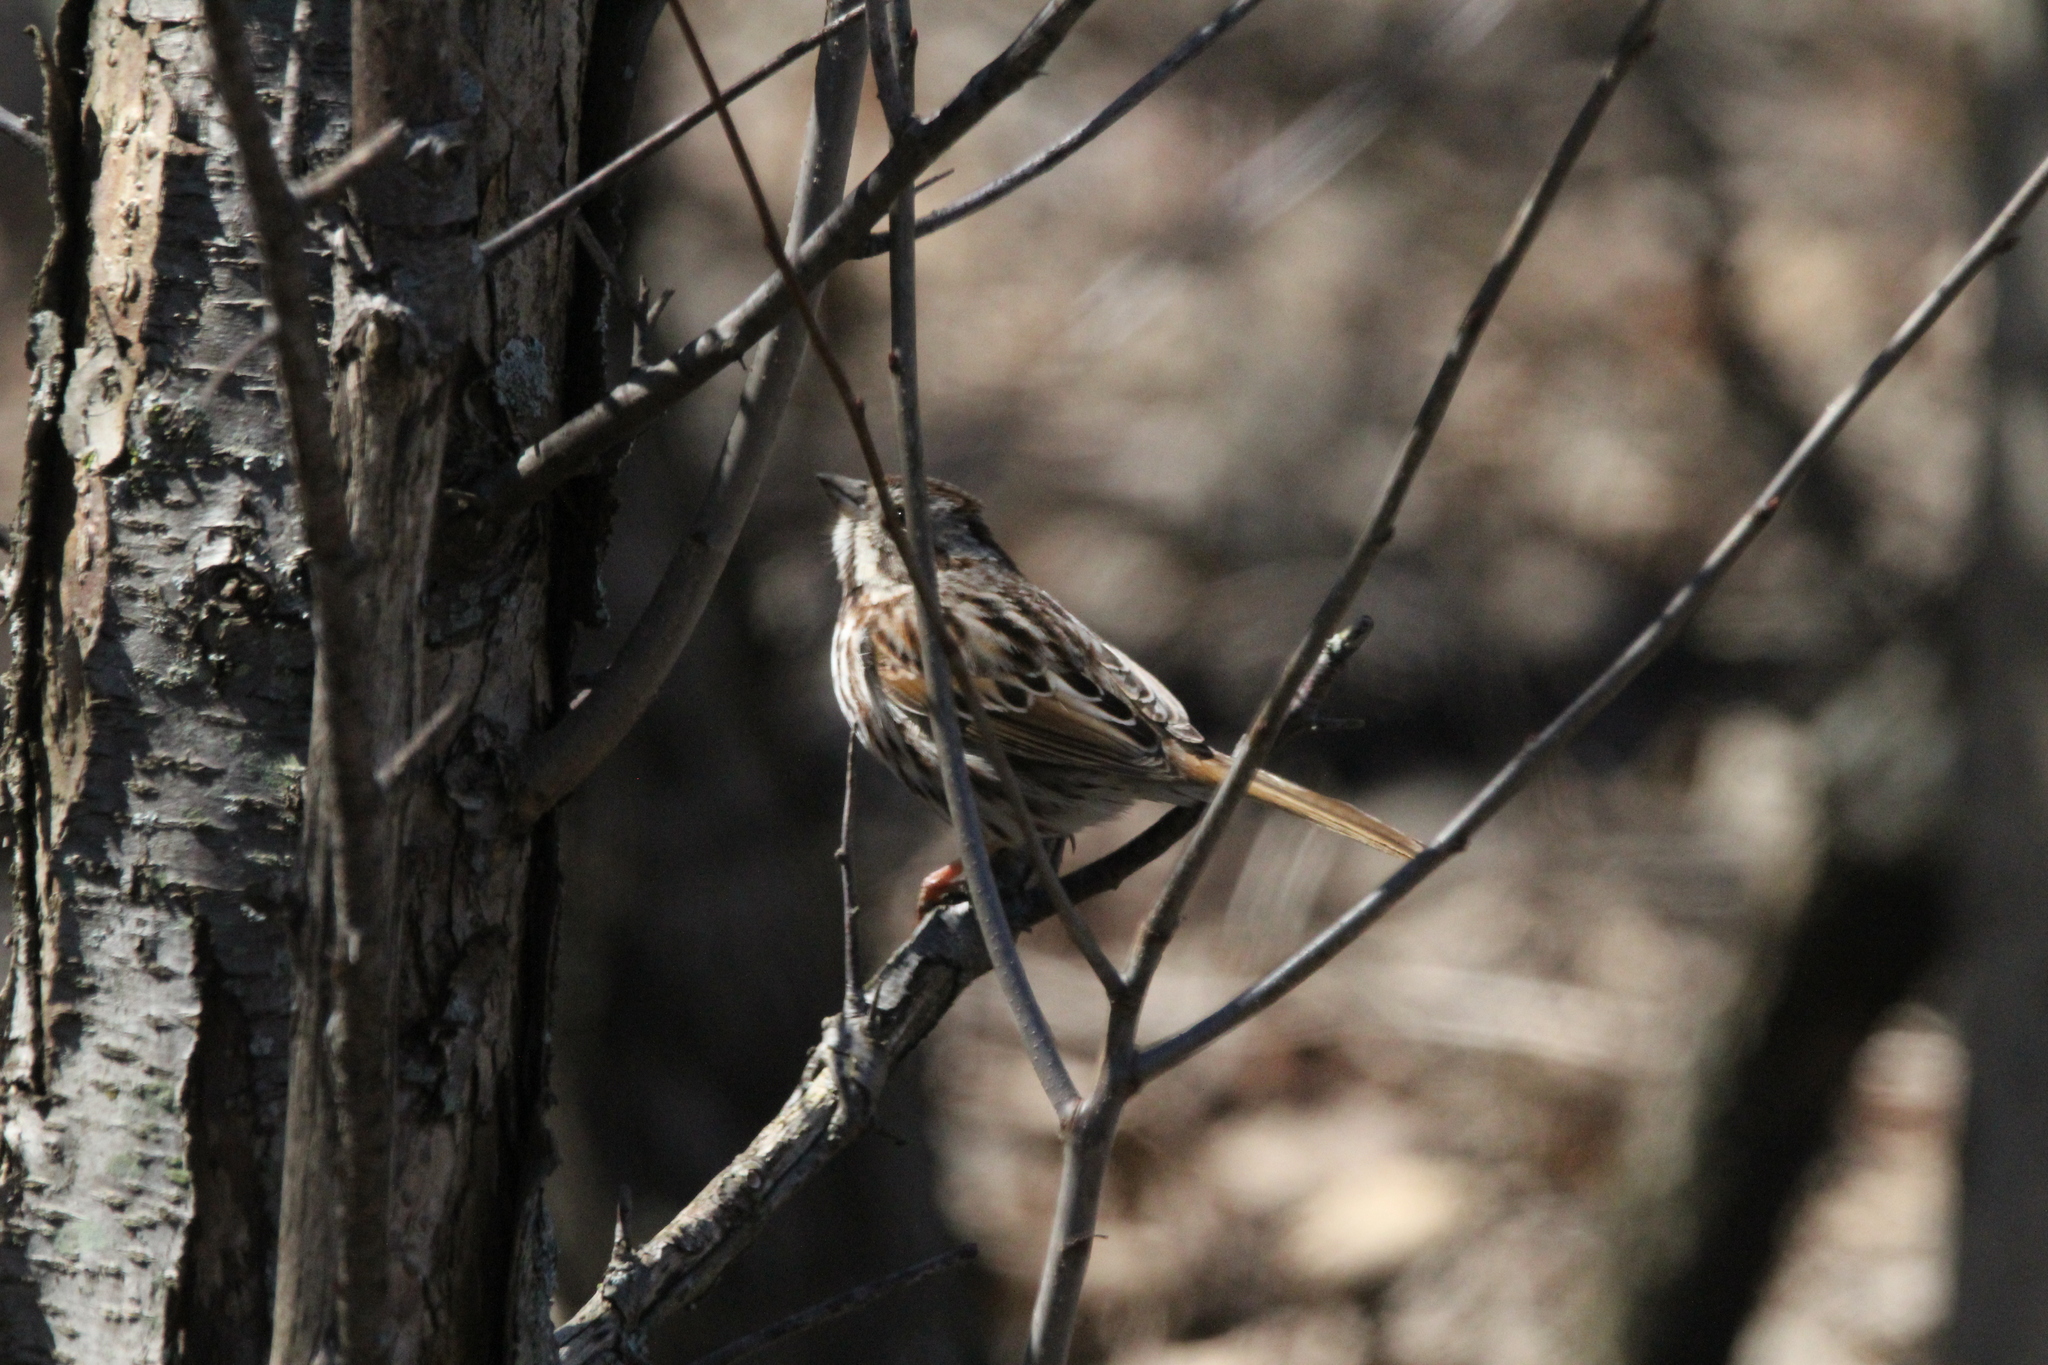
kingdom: Animalia
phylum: Chordata
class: Aves
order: Passeriformes
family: Passerellidae
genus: Melospiza
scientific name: Melospiza melodia
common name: Song sparrow
